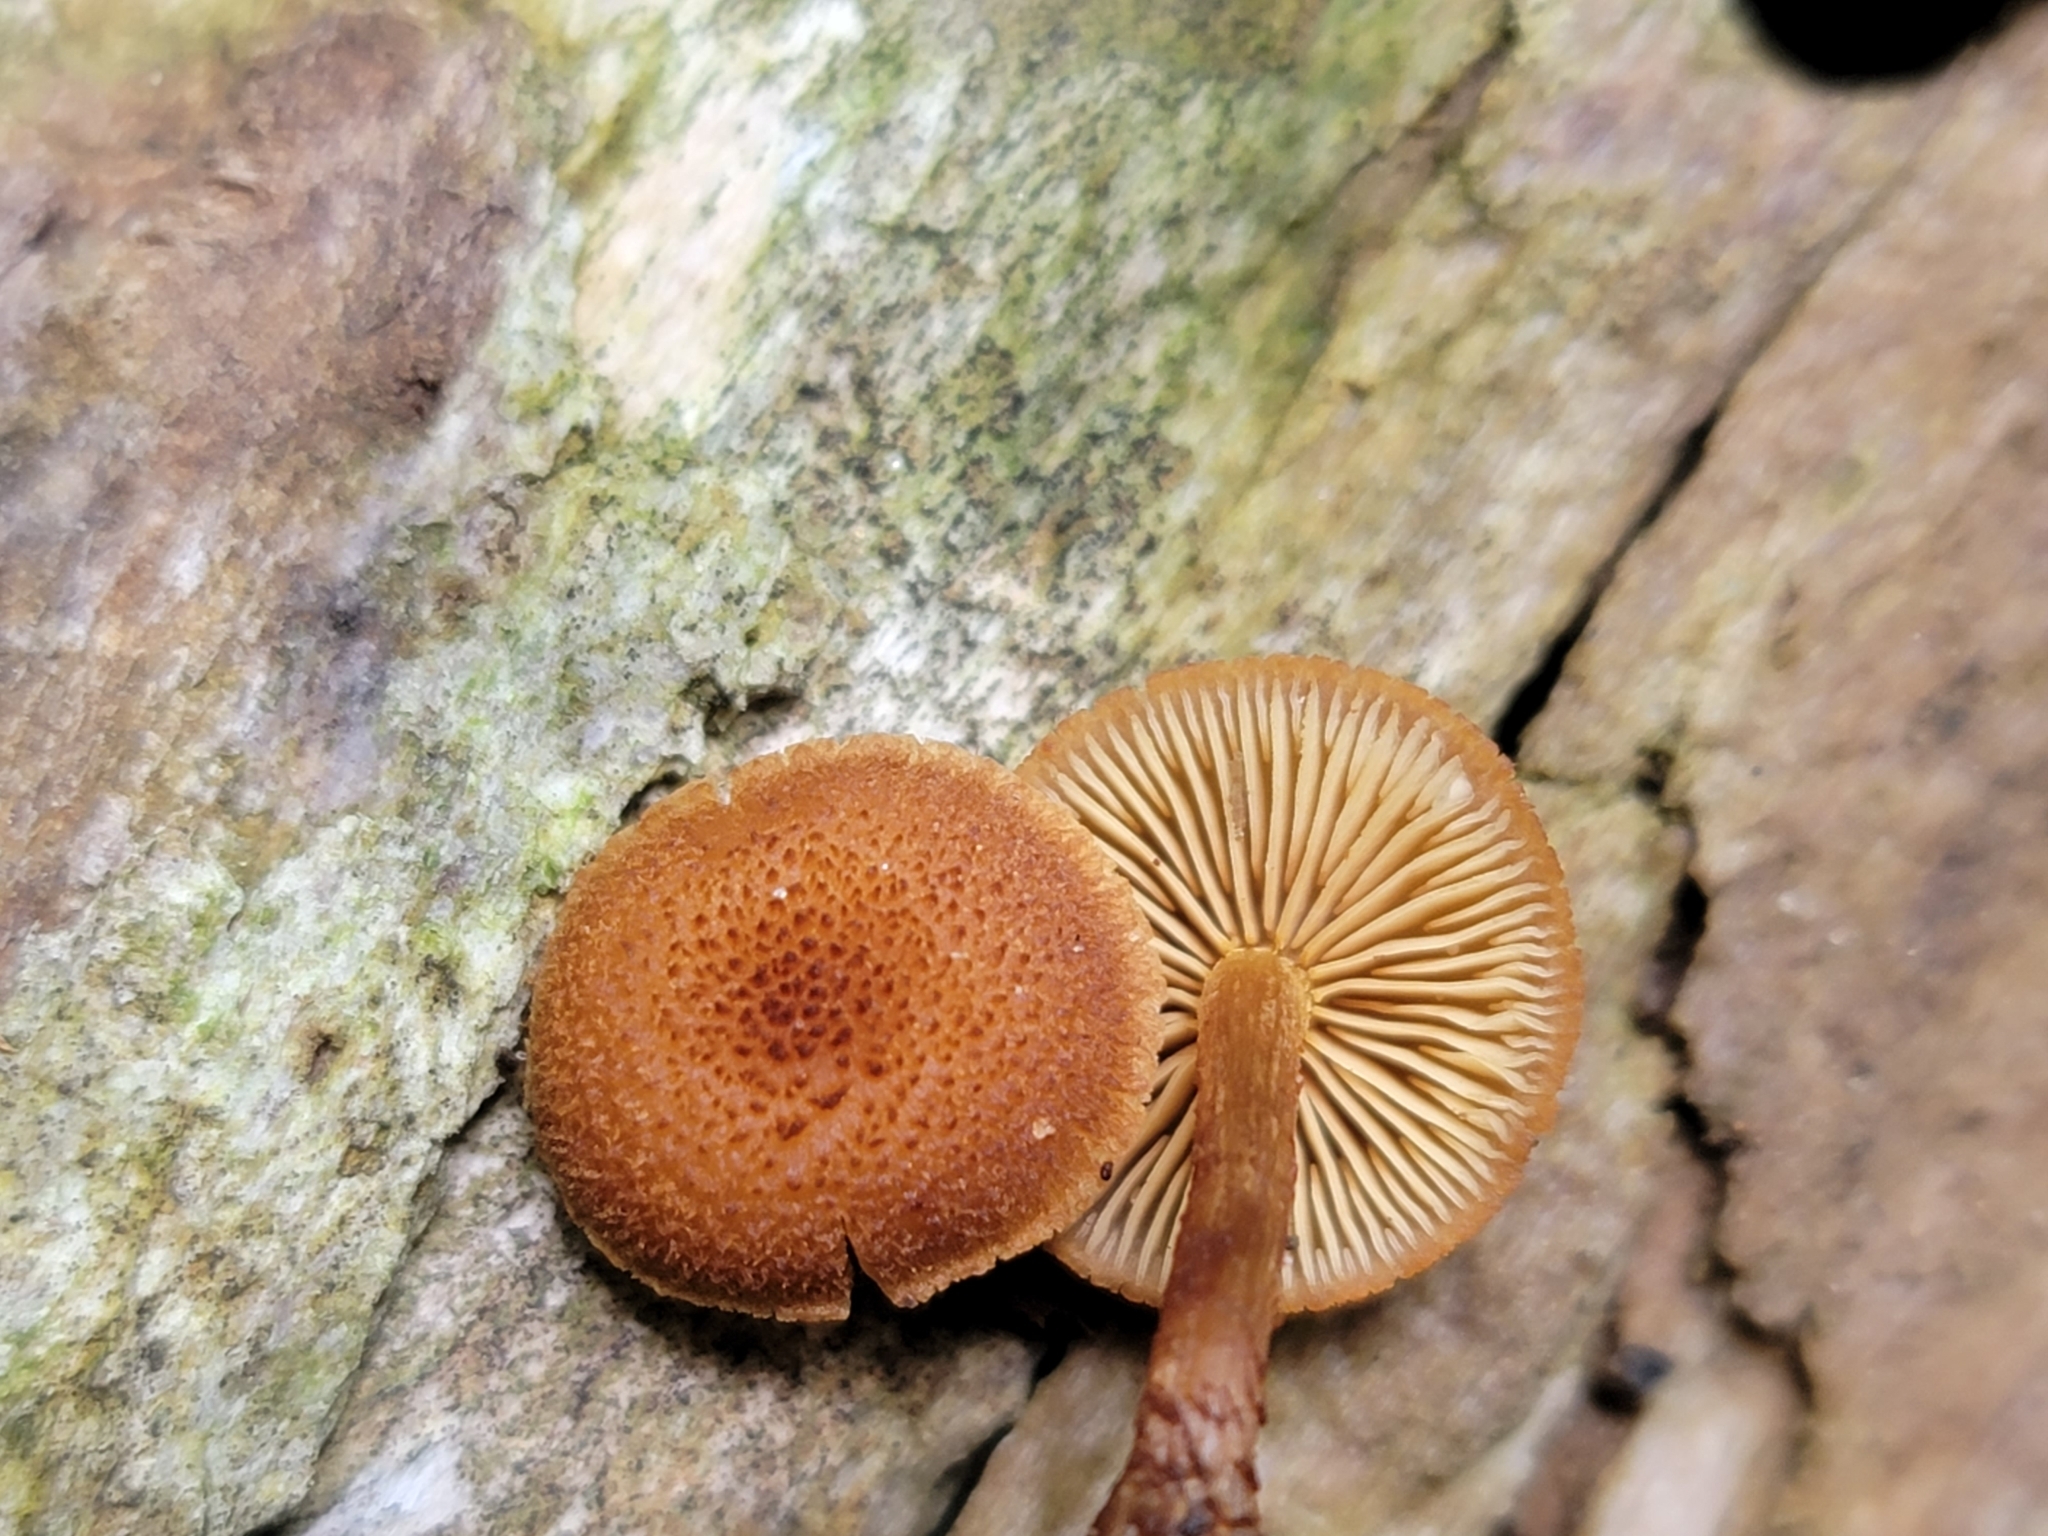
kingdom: Fungi
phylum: Basidiomycota
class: Agaricomycetes
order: Agaricales
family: Tubariaceae
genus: Flammulaster
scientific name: Flammulaster erinaceellus
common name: Powder-scale pholiota
